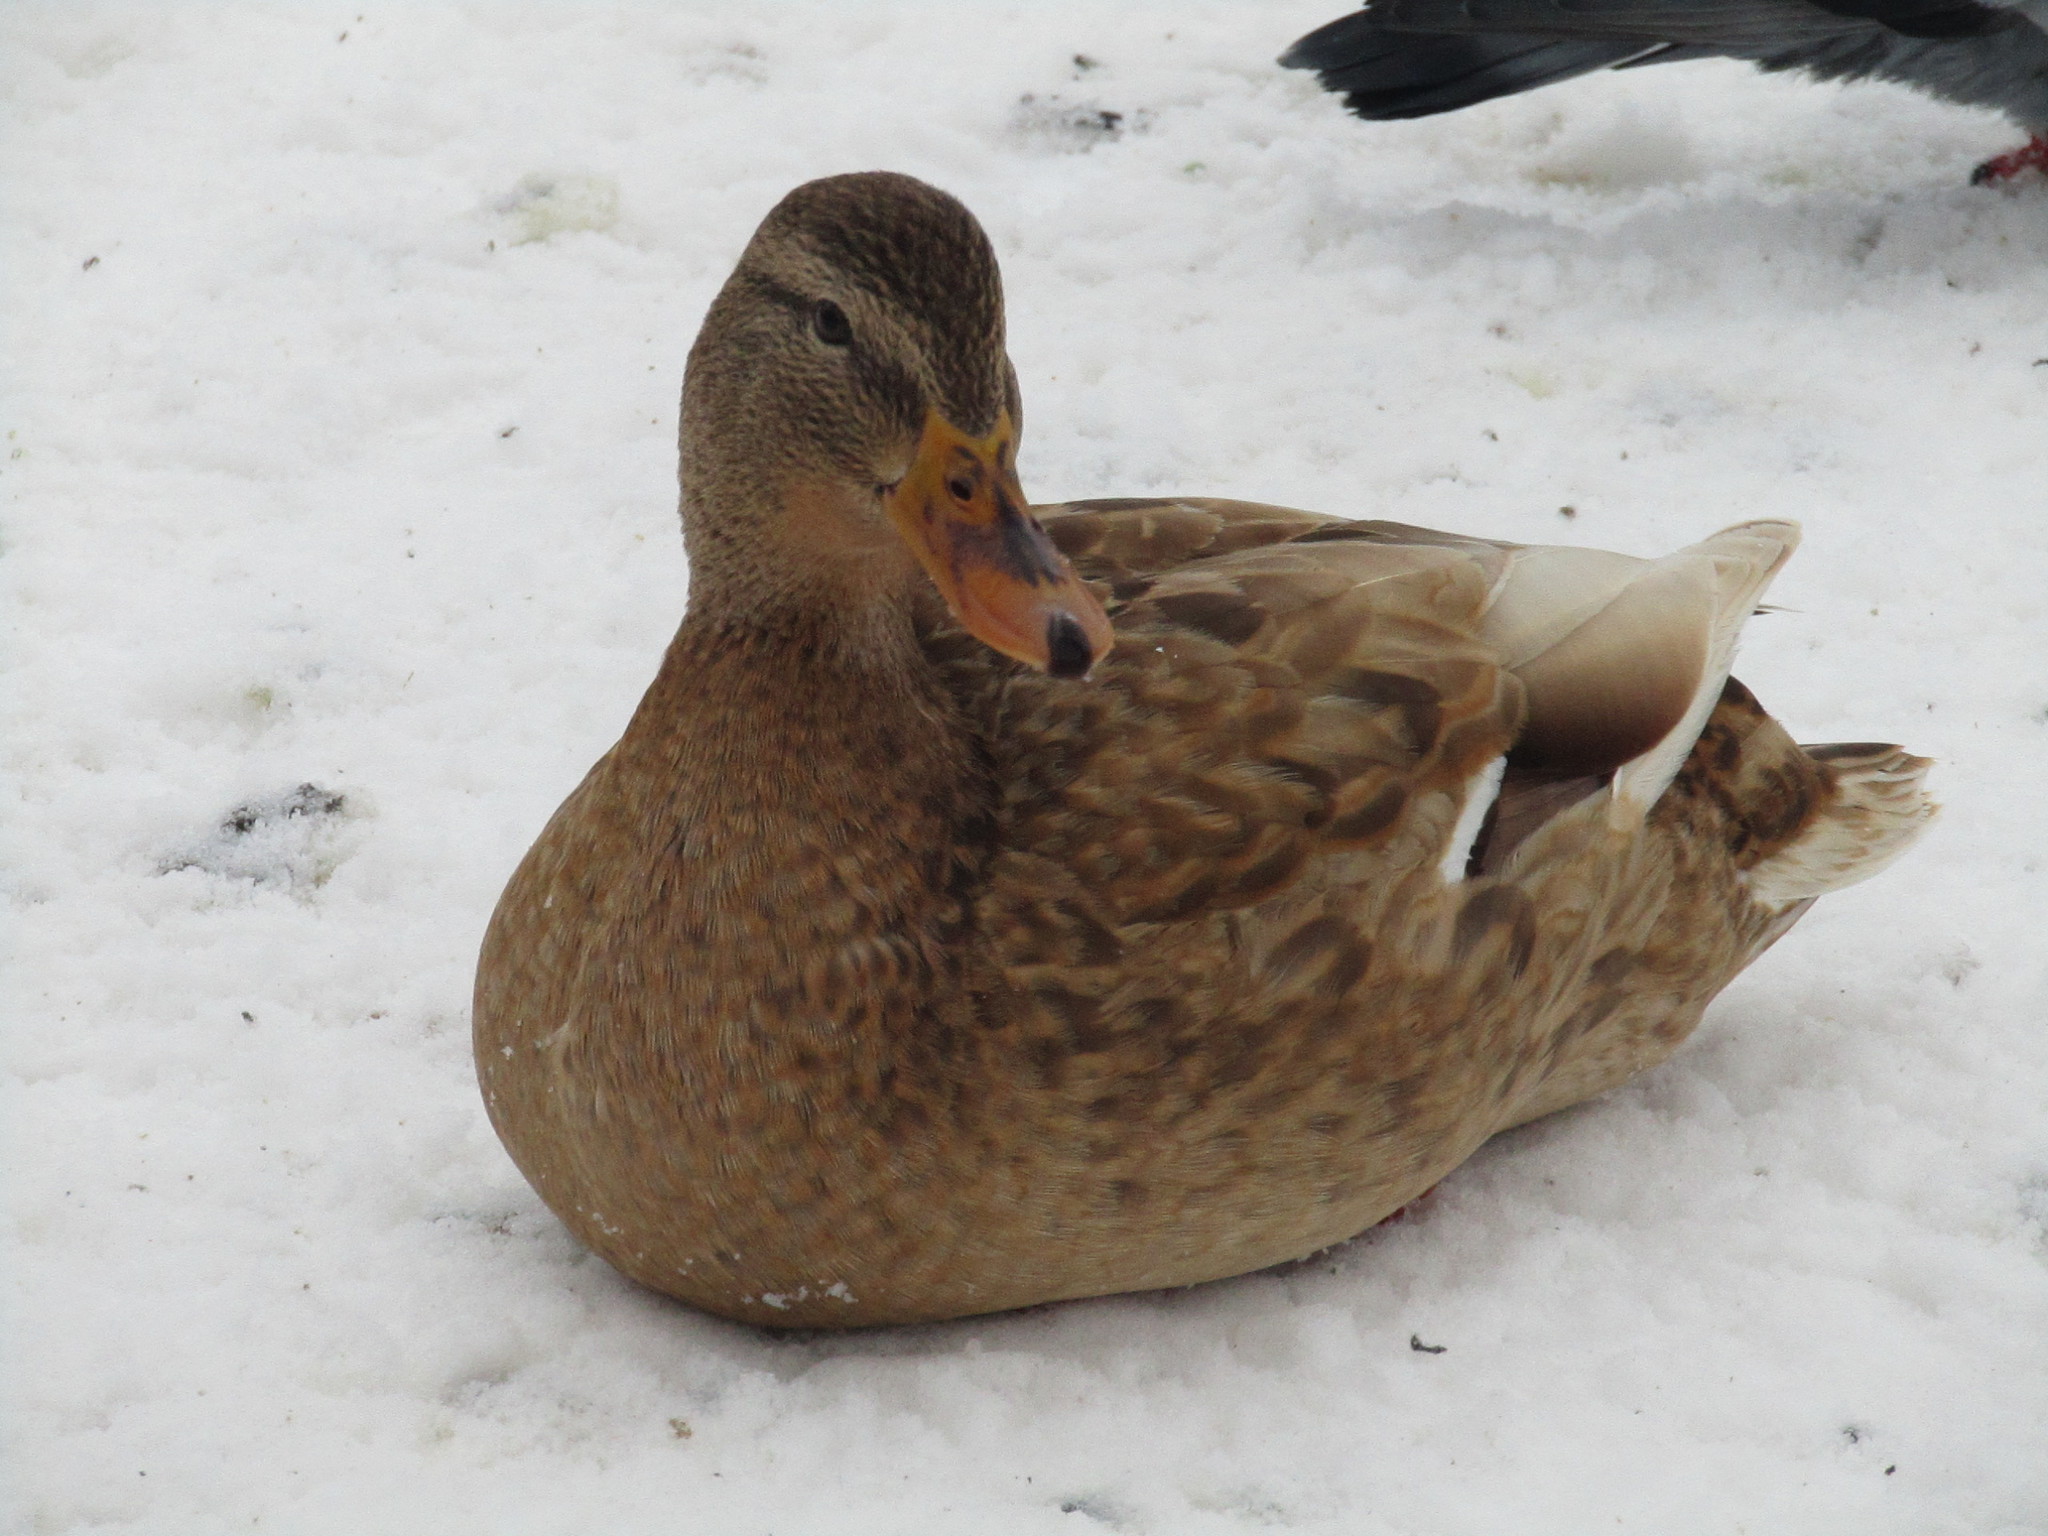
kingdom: Animalia
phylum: Chordata
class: Aves
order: Anseriformes
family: Anatidae
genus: Anas
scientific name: Anas platyrhynchos
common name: Mallard
